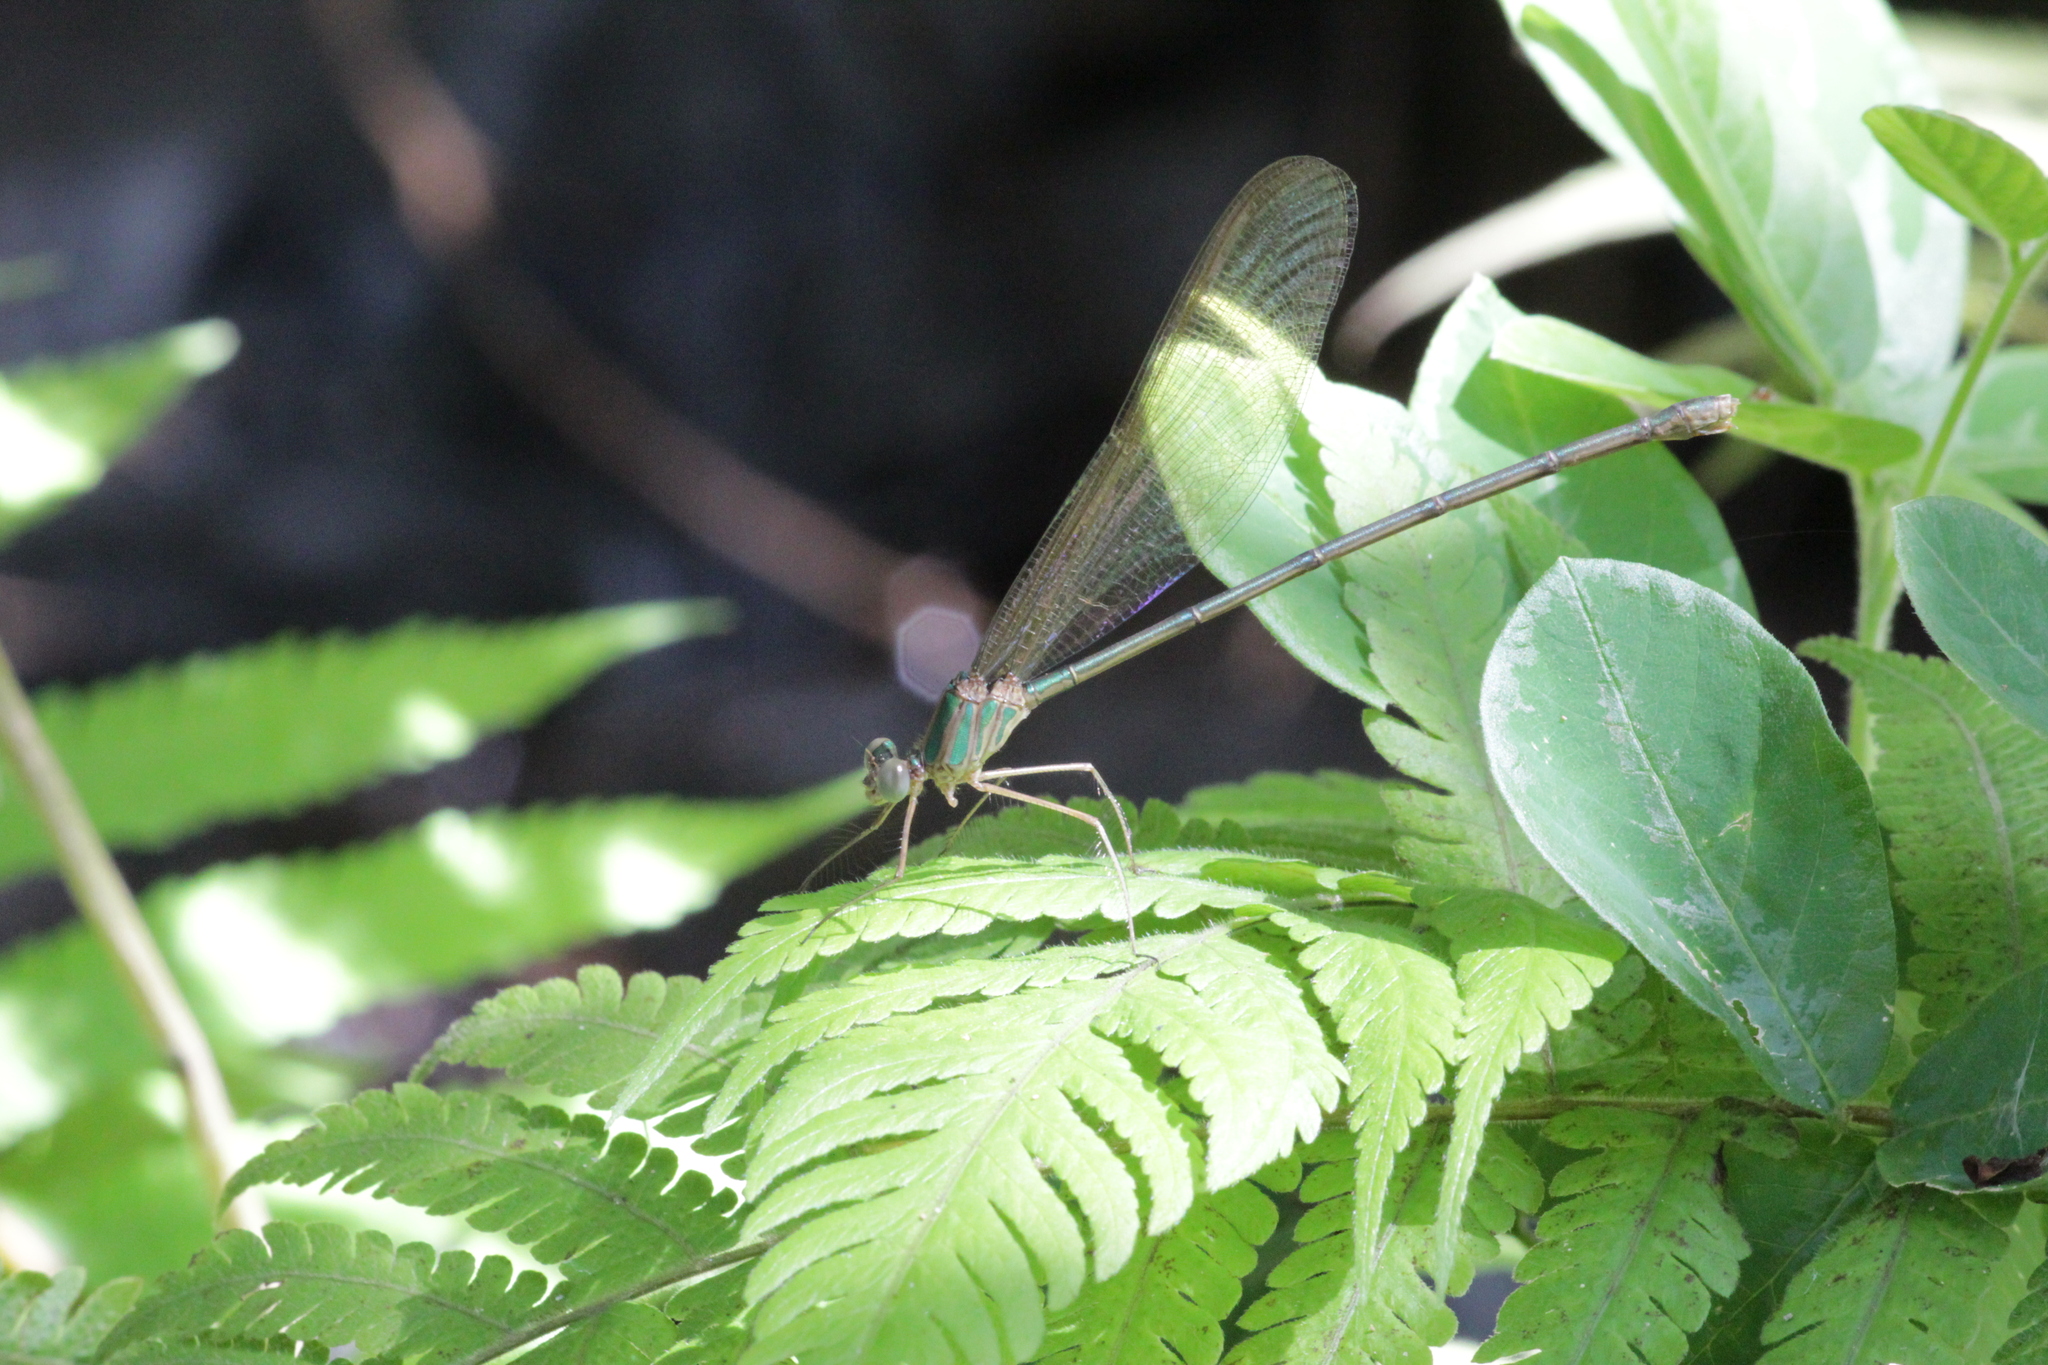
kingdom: Animalia
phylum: Arthropoda
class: Insecta
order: Odonata
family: Calopterygidae
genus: Phaon
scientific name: Phaon iridipennis
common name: Glistening demoiselle
